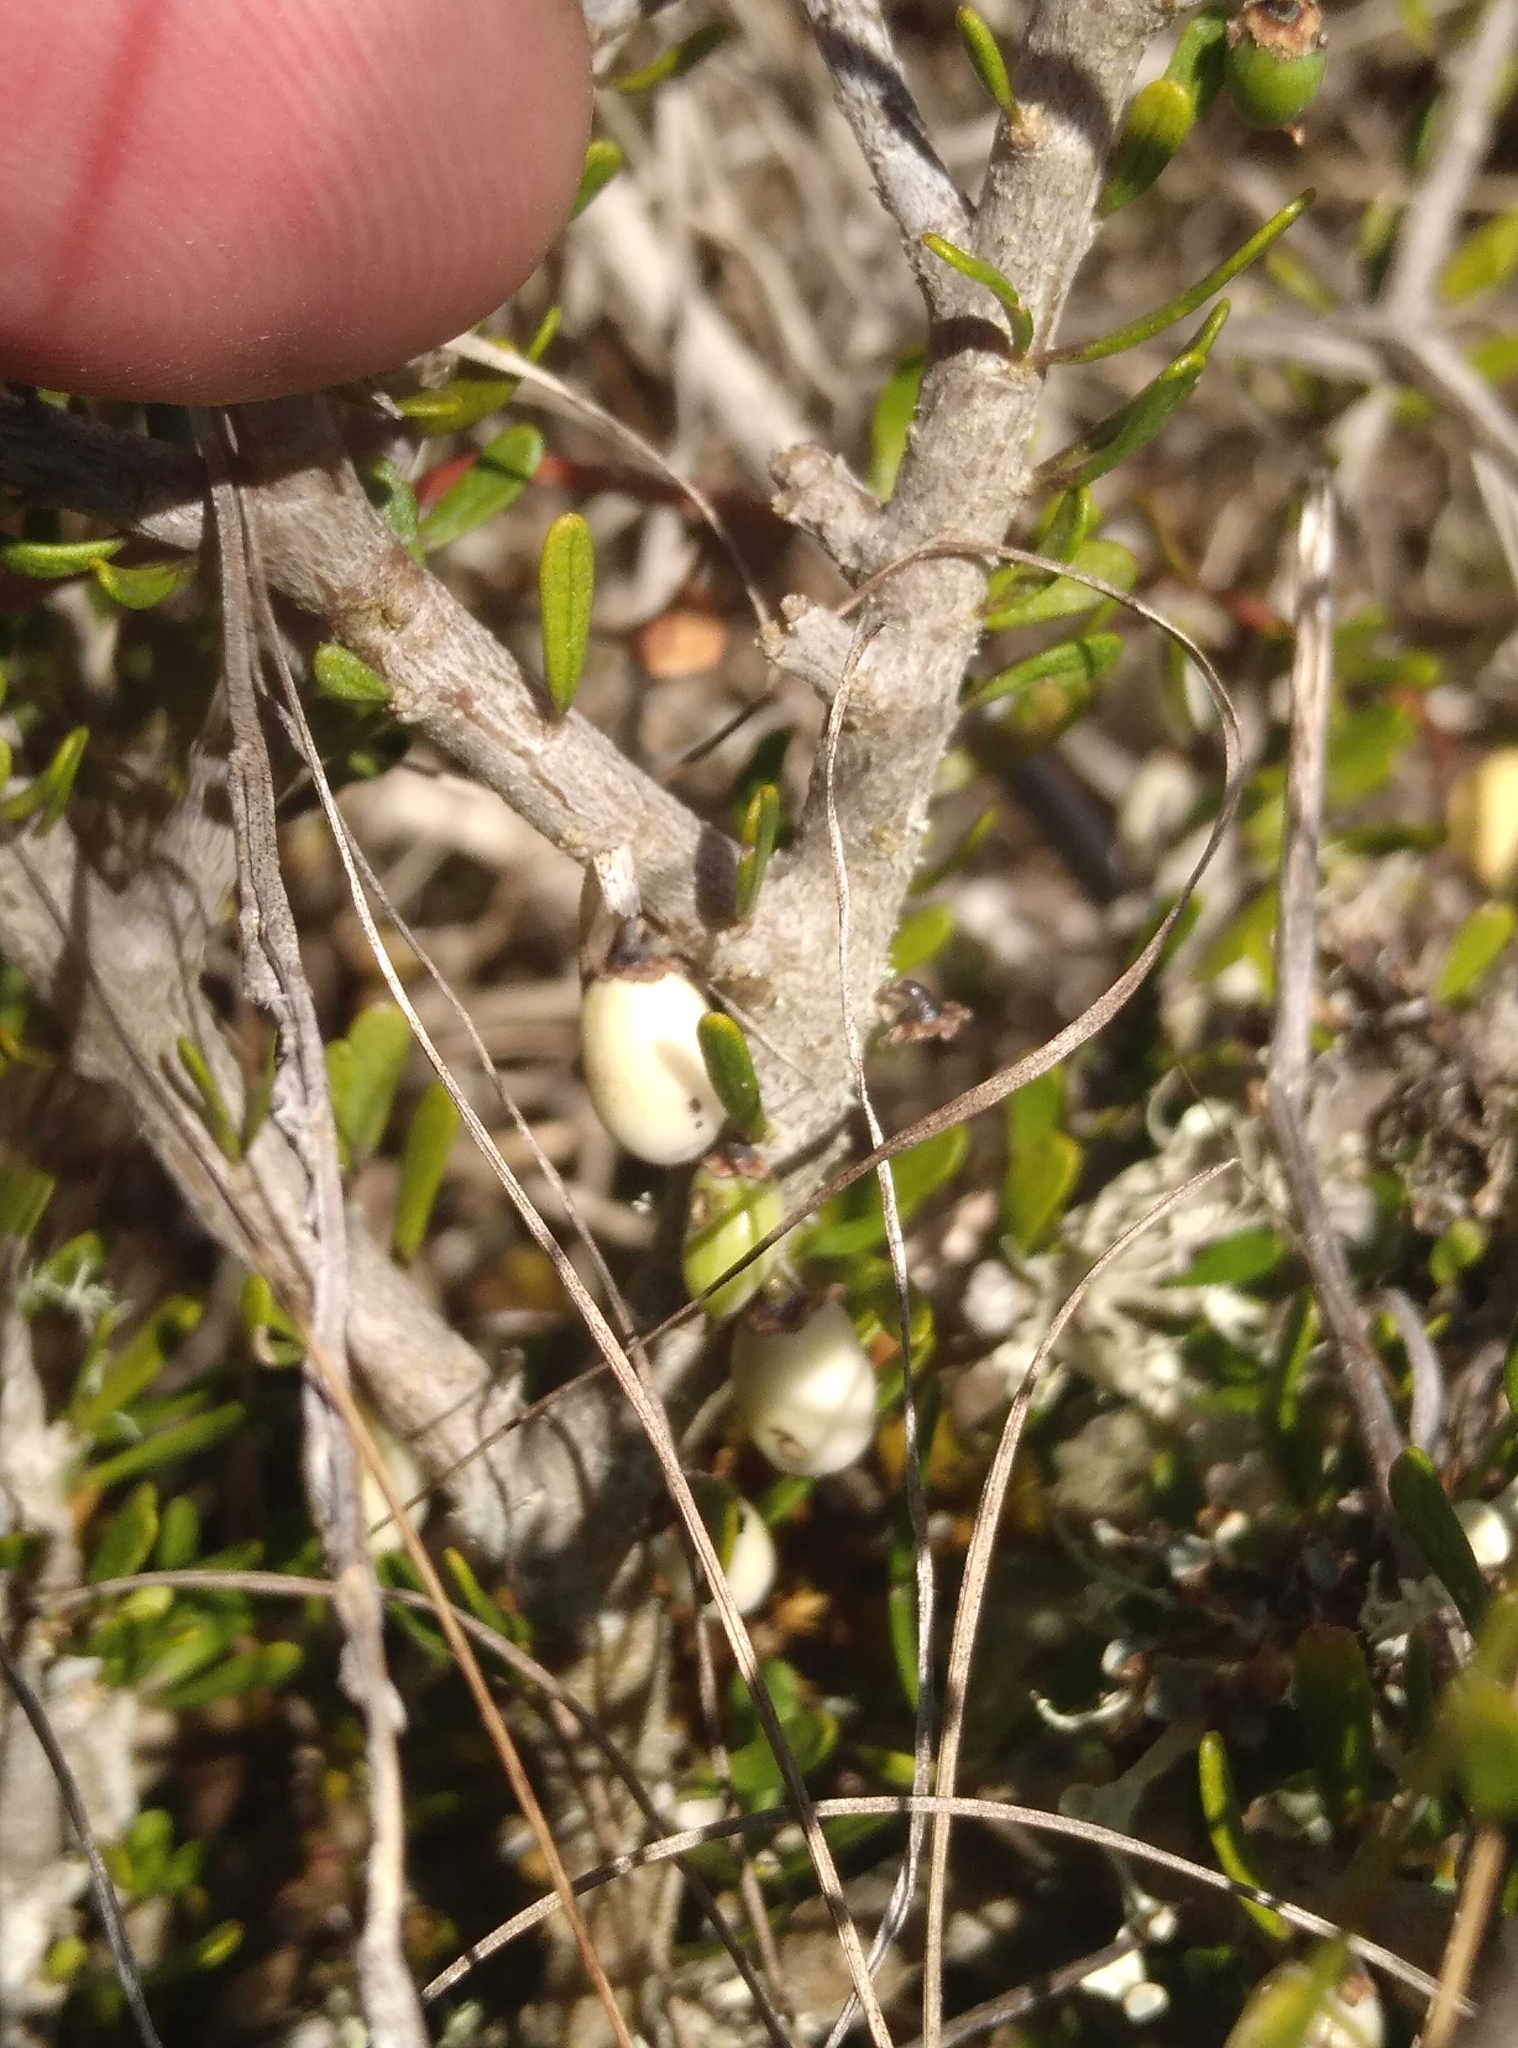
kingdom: Plantae
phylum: Tracheophyta
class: Magnoliopsida
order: Malpighiales
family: Violaceae
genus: Melicytus
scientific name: Melicytus alpinus
